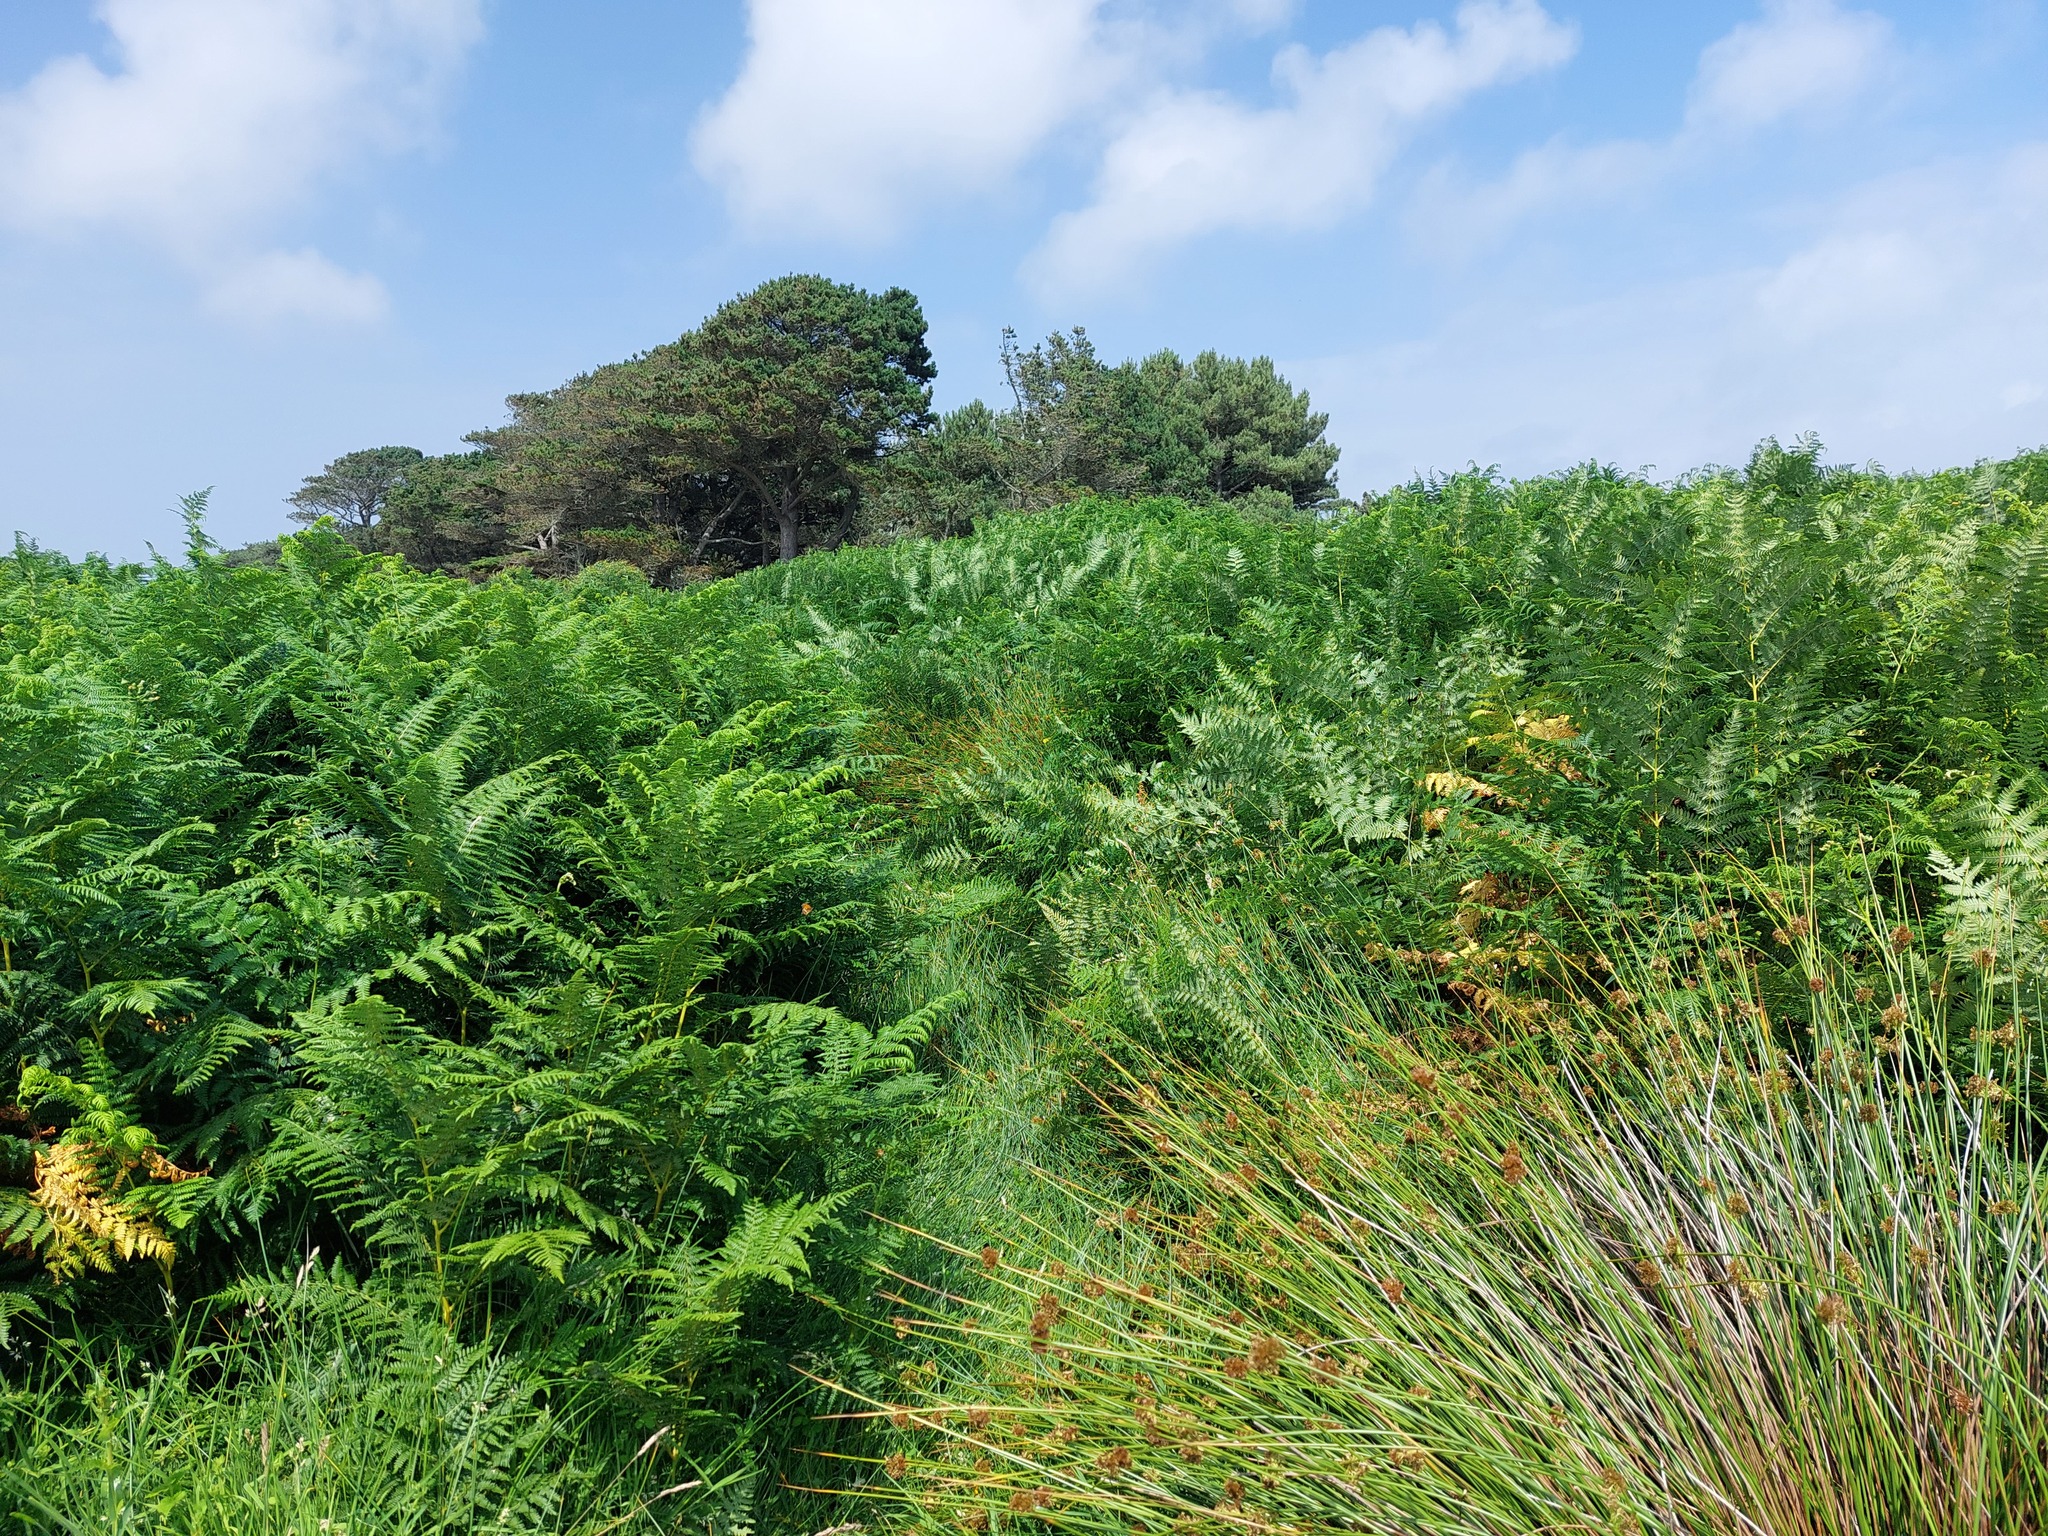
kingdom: Plantae
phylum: Tracheophyta
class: Polypodiopsida
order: Polypodiales
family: Dennstaedtiaceae
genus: Pteridium
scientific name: Pteridium aquilinum
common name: Bracken
